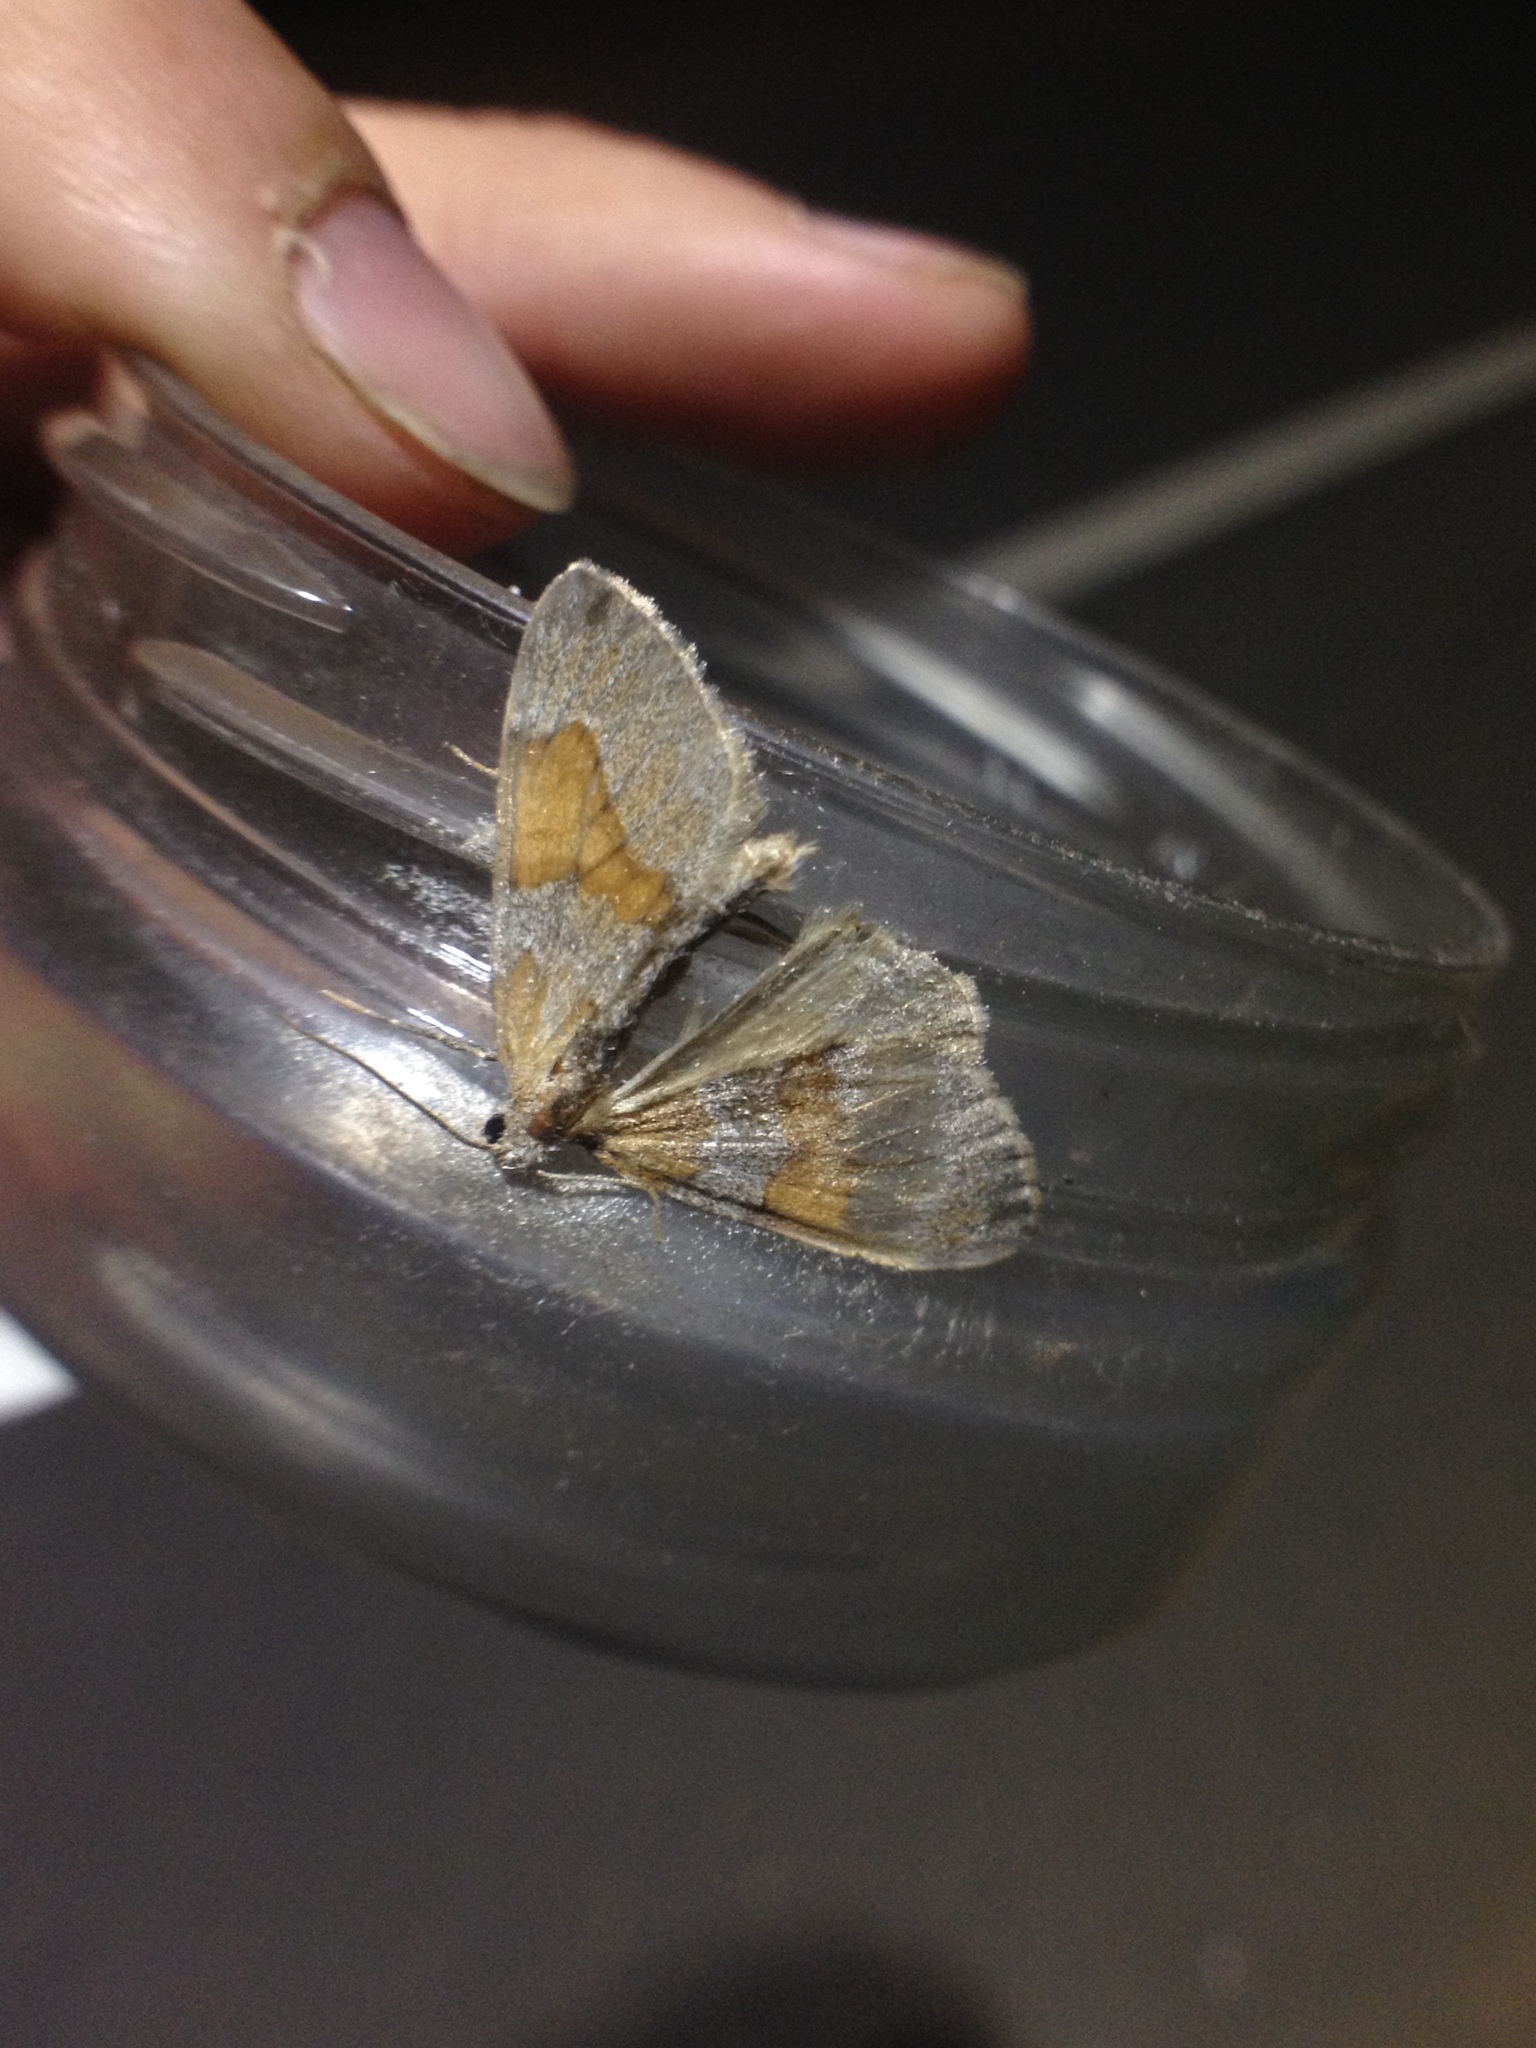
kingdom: Animalia
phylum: Arthropoda
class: Insecta
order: Lepidoptera
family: Geometridae
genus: Thera
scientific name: Thera obeliscata
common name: Grey pine carpet
